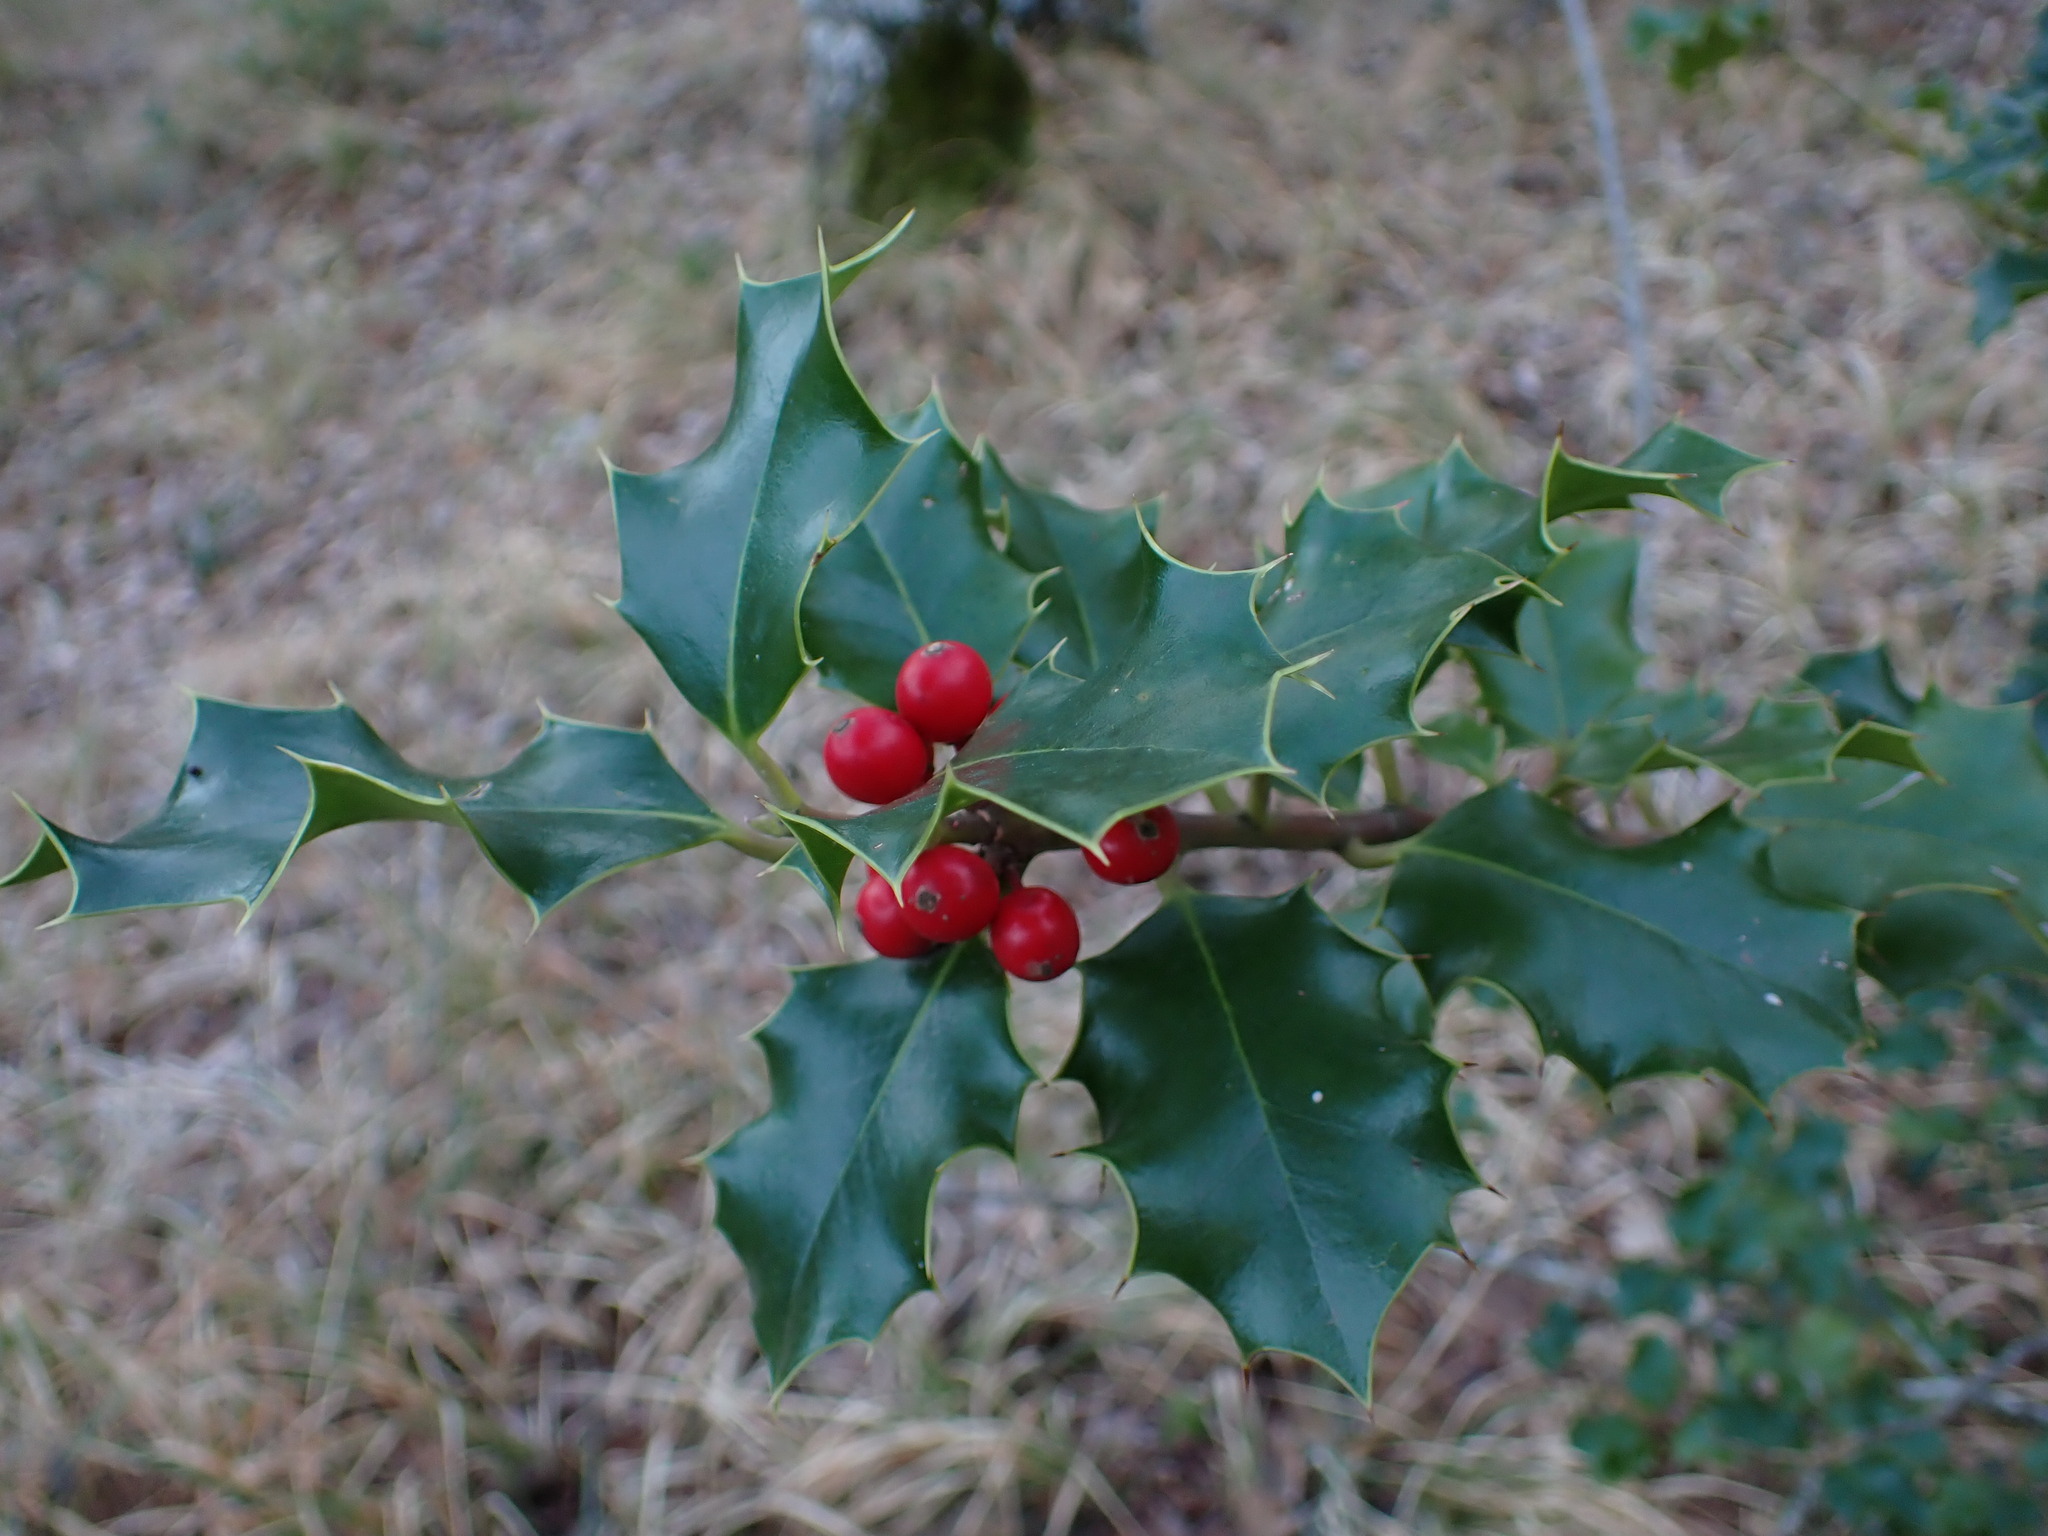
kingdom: Plantae
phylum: Tracheophyta
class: Magnoliopsida
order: Aquifoliales
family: Aquifoliaceae
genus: Ilex
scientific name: Ilex aquifolium
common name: English holly
